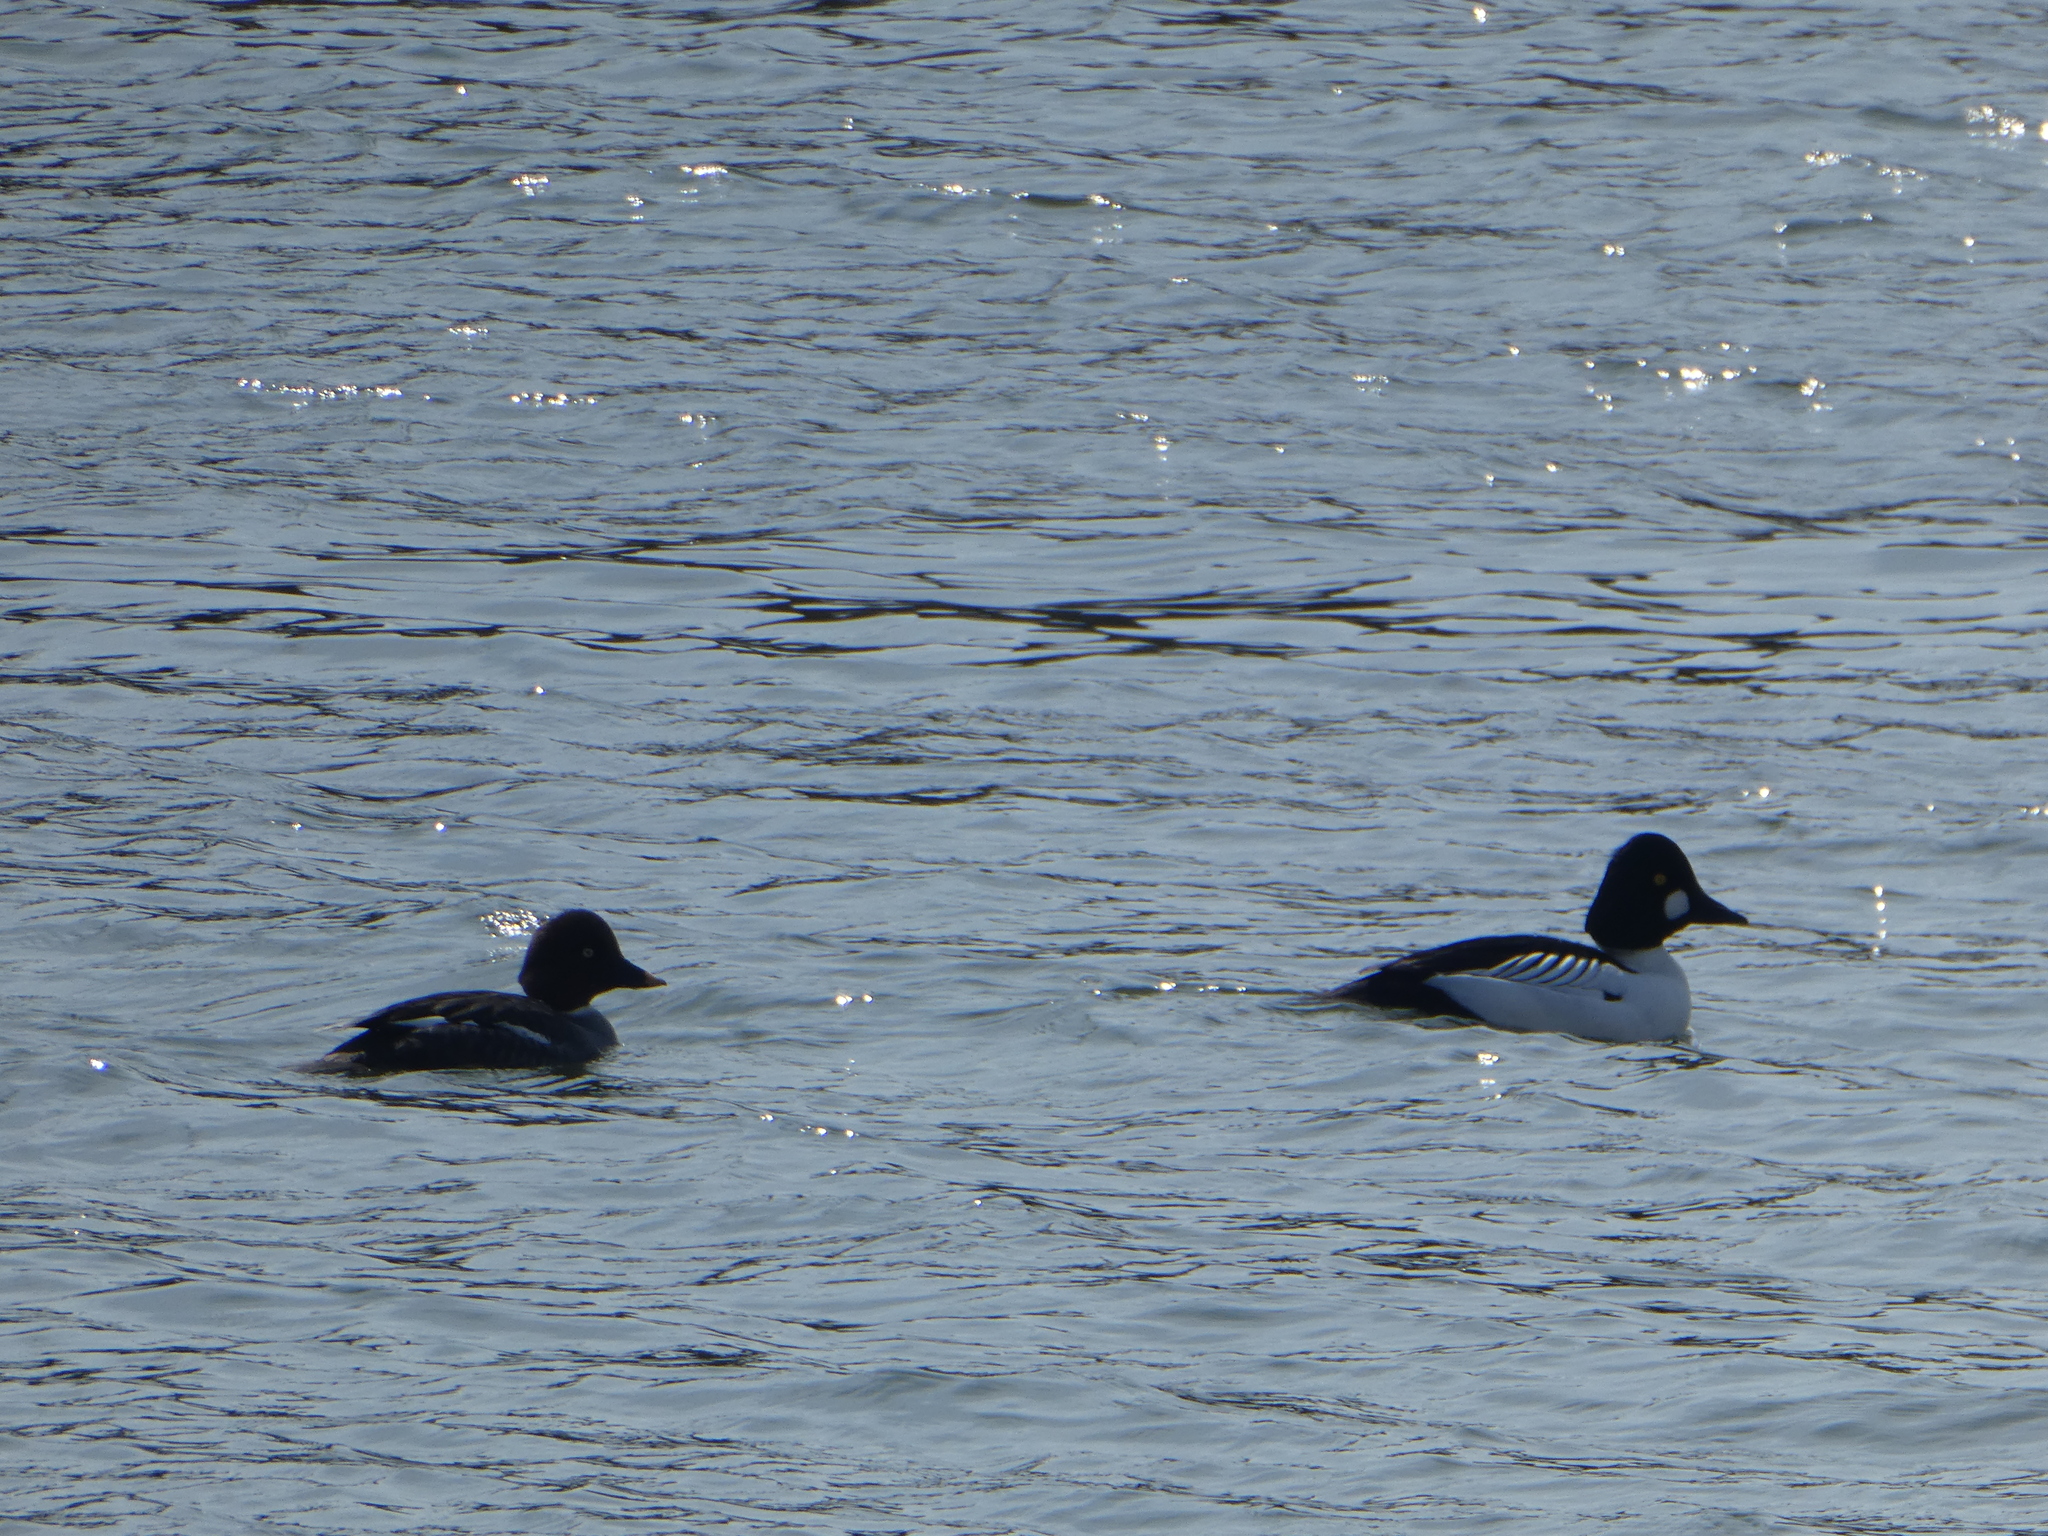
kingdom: Animalia
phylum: Chordata
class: Aves
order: Anseriformes
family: Anatidae
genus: Bucephala
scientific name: Bucephala clangula
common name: Common goldeneye
